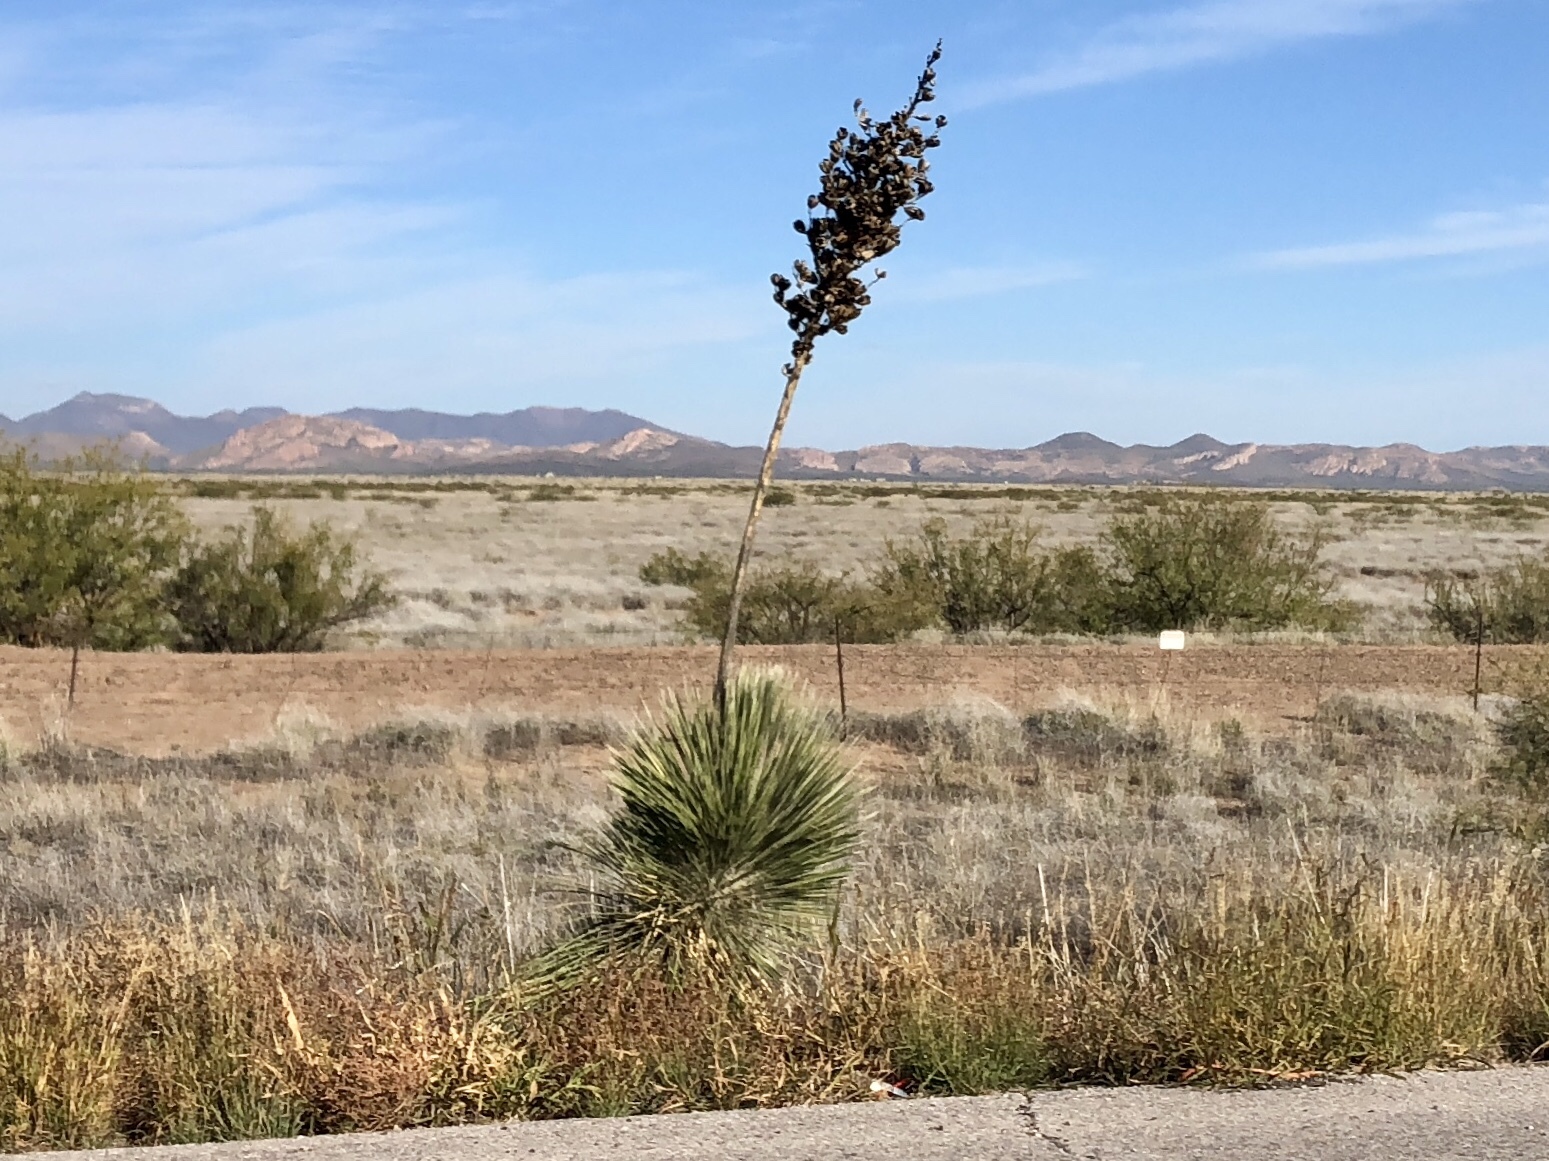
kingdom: Plantae
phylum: Tracheophyta
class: Liliopsida
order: Asparagales
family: Asparagaceae
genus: Yucca
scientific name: Yucca elata
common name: Palmella
